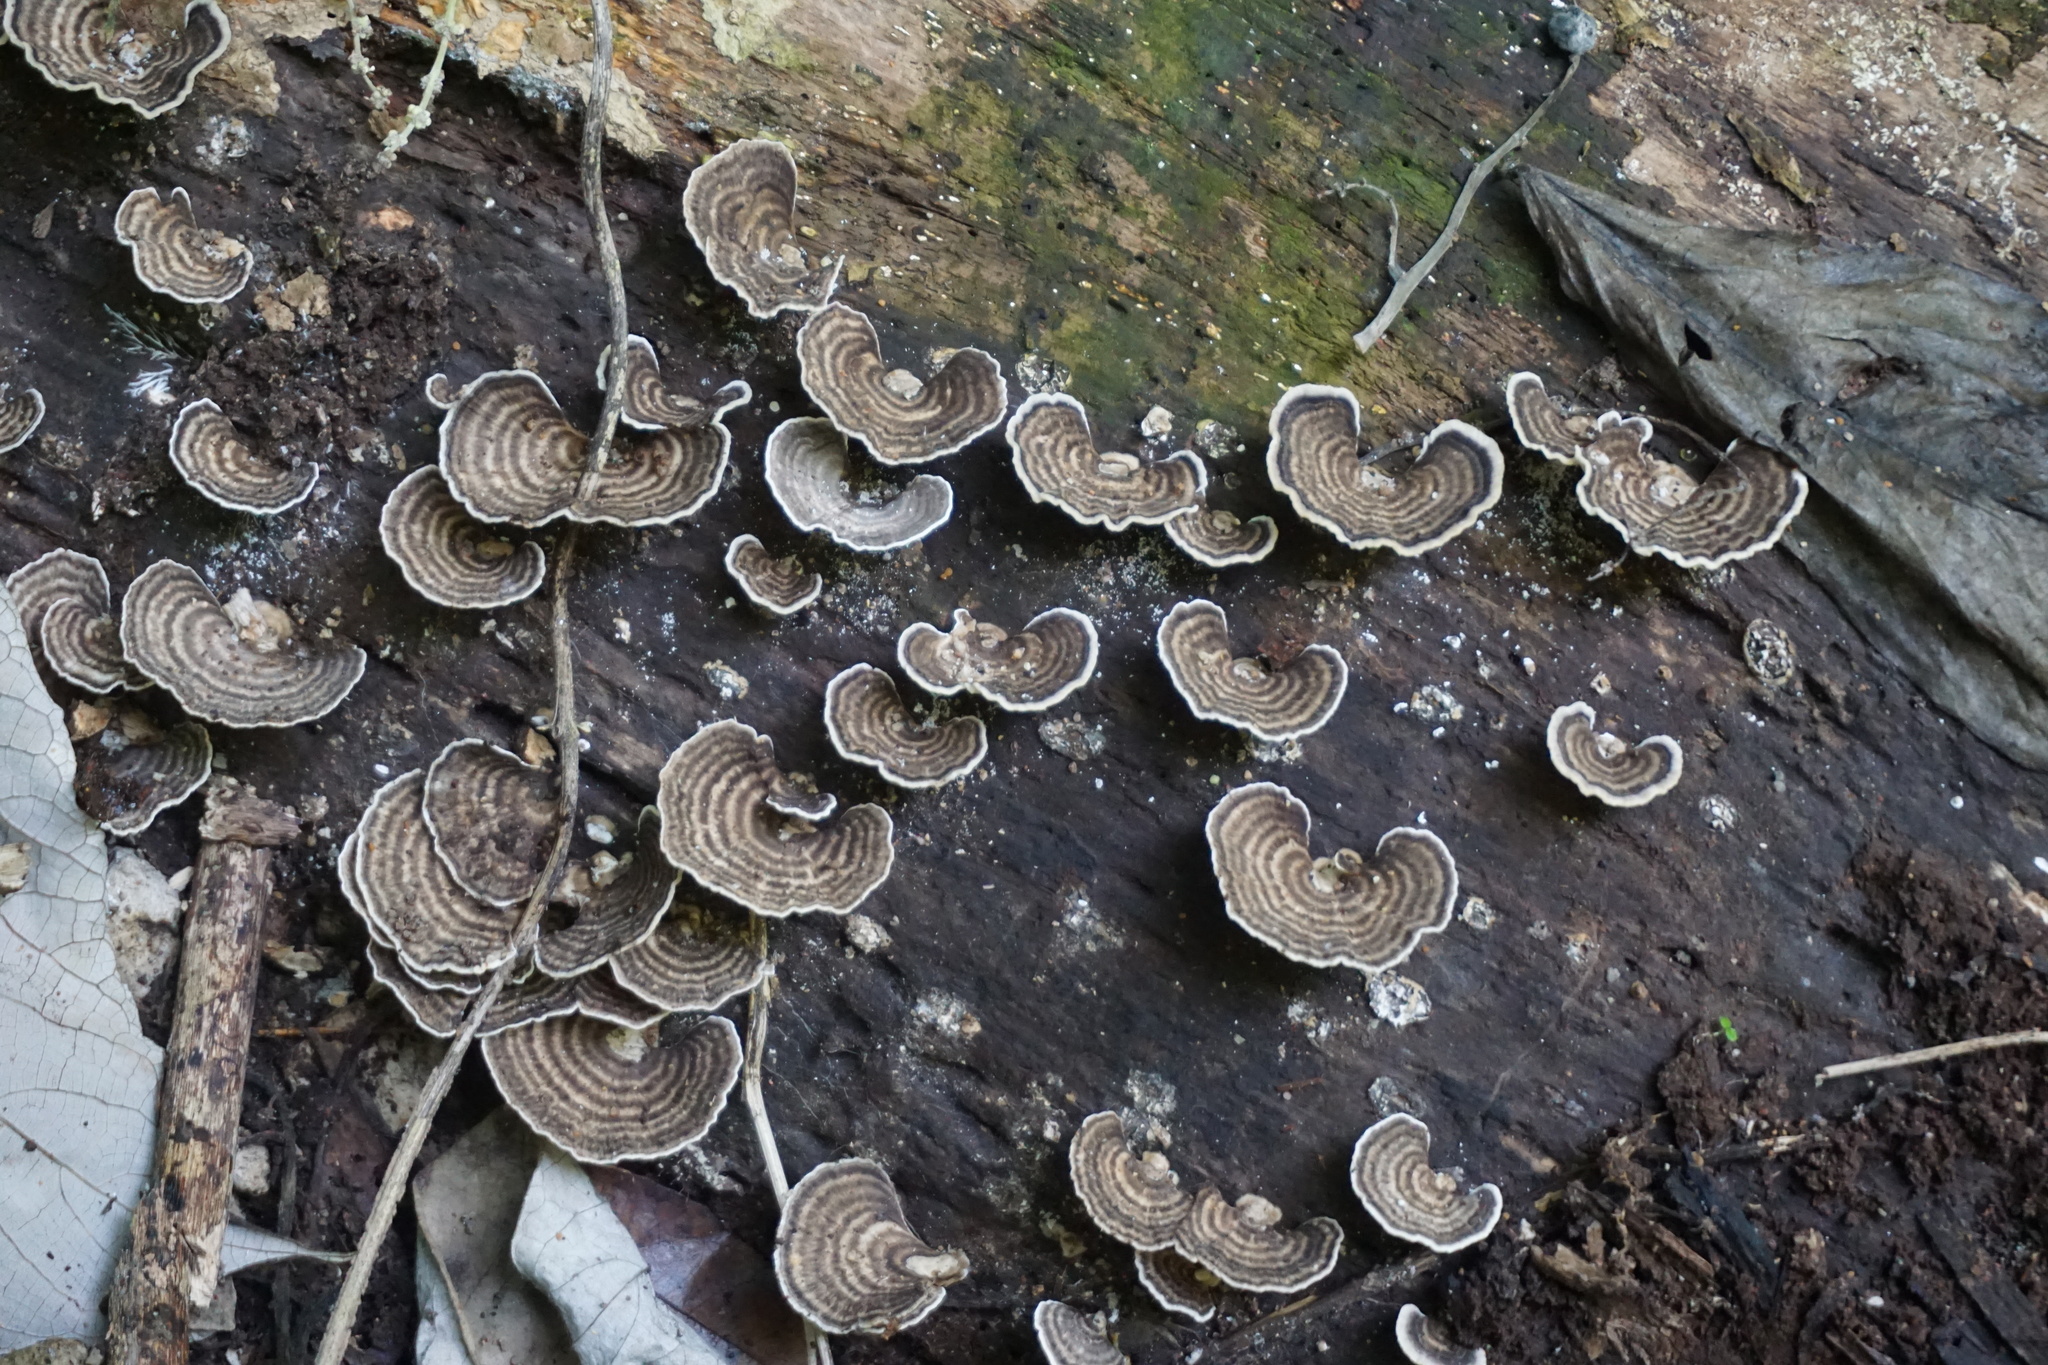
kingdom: Fungi
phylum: Basidiomycota
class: Agaricomycetes
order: Polyporales
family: Polyporaceae
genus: Cubamyces
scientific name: Cubamyces menziesii
